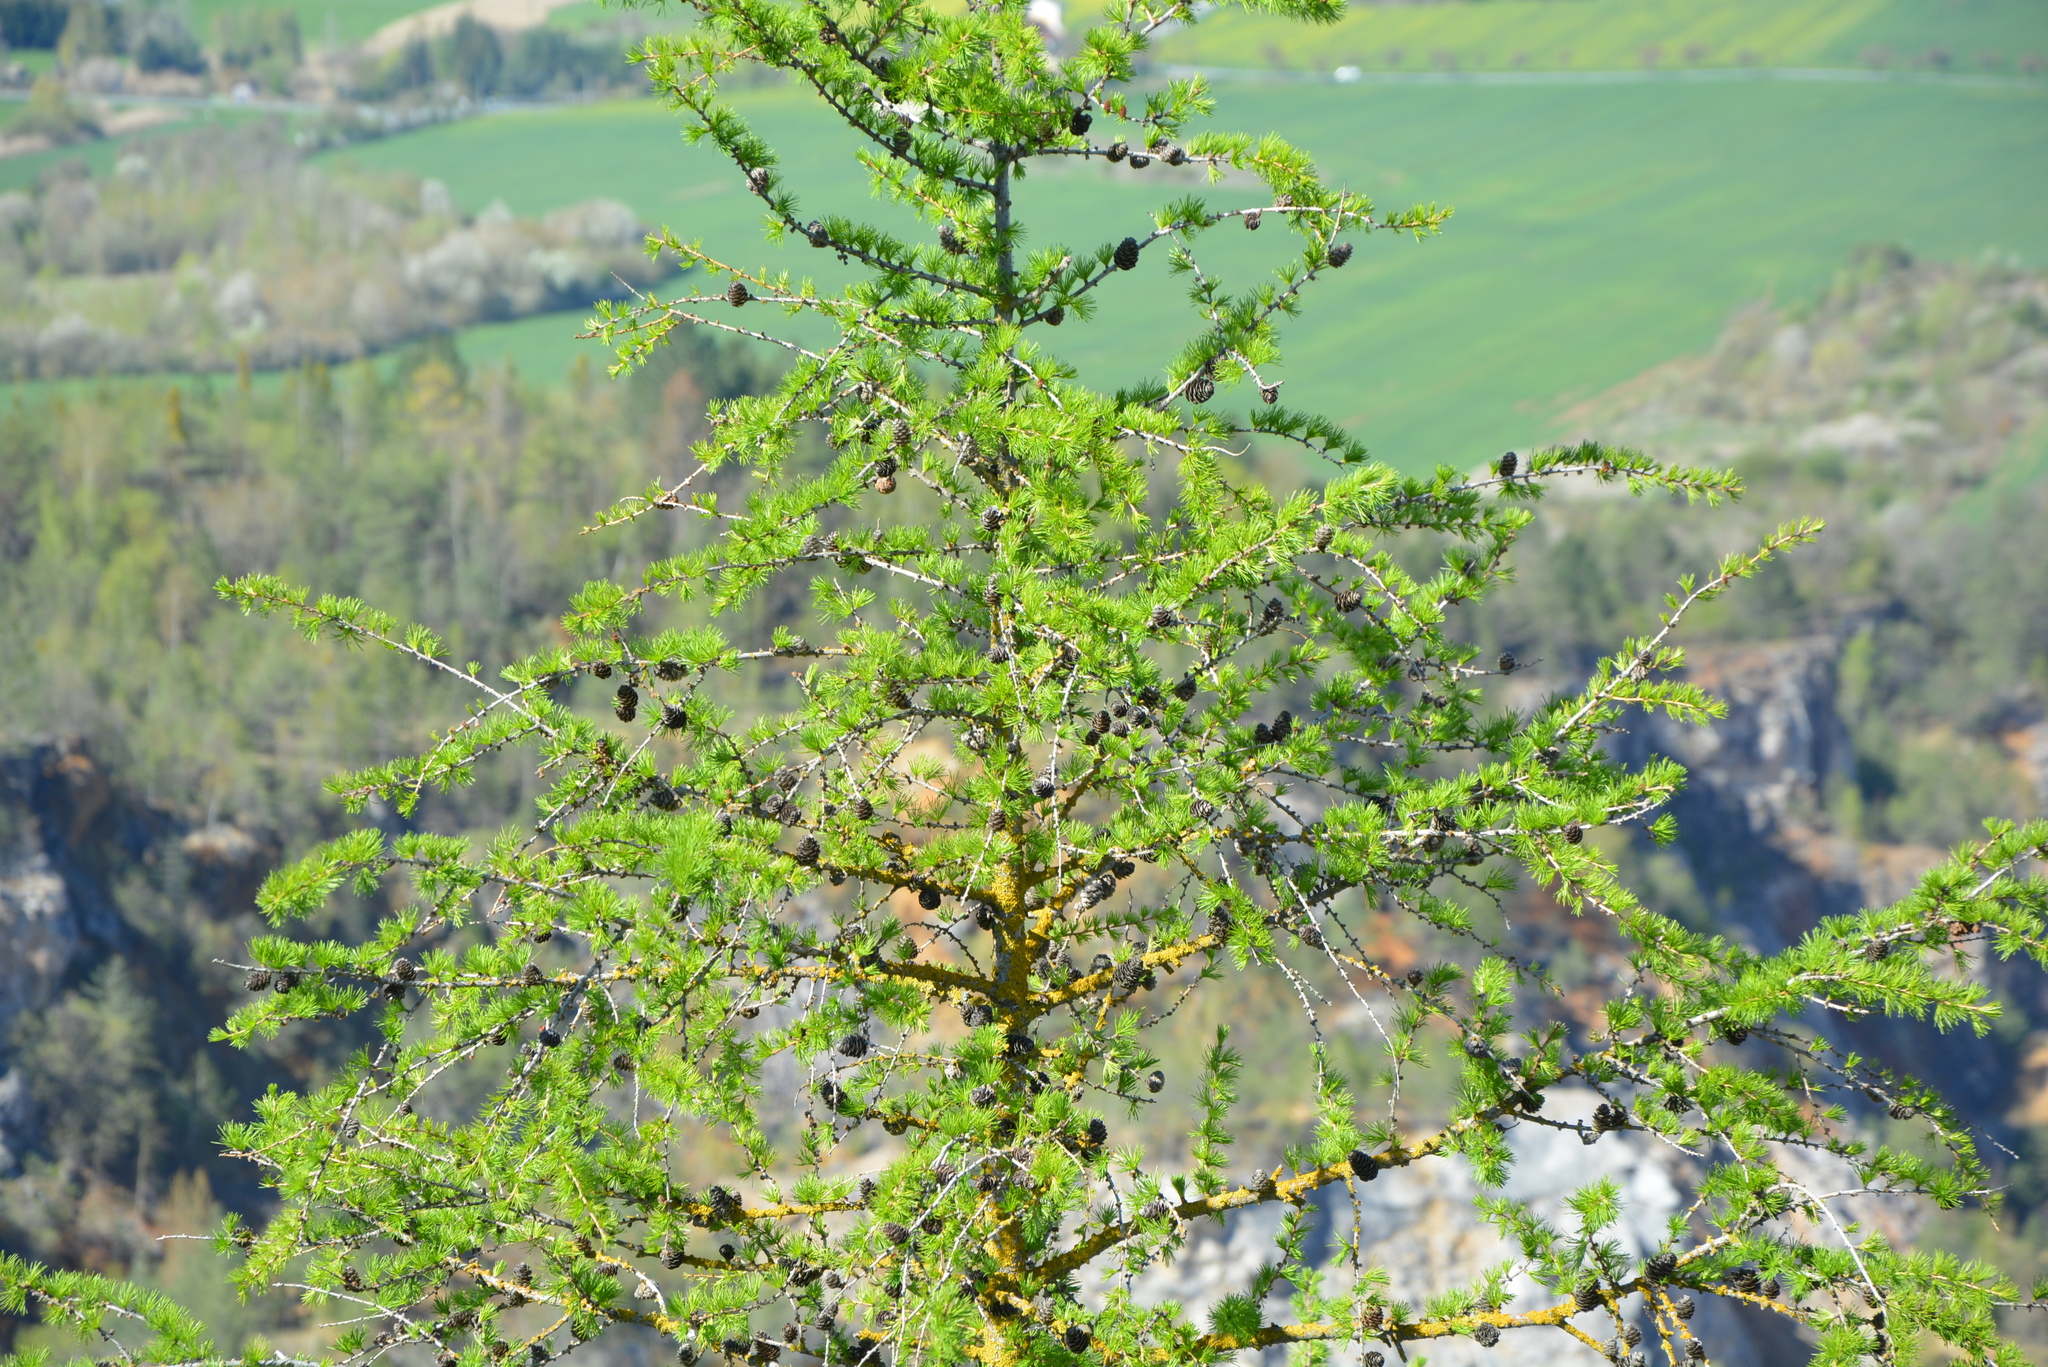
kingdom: Plantae
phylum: Tracheophyta
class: Pinopsida
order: Pinales
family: Pinaceae
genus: Larix
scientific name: Larix decidua
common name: European larch
